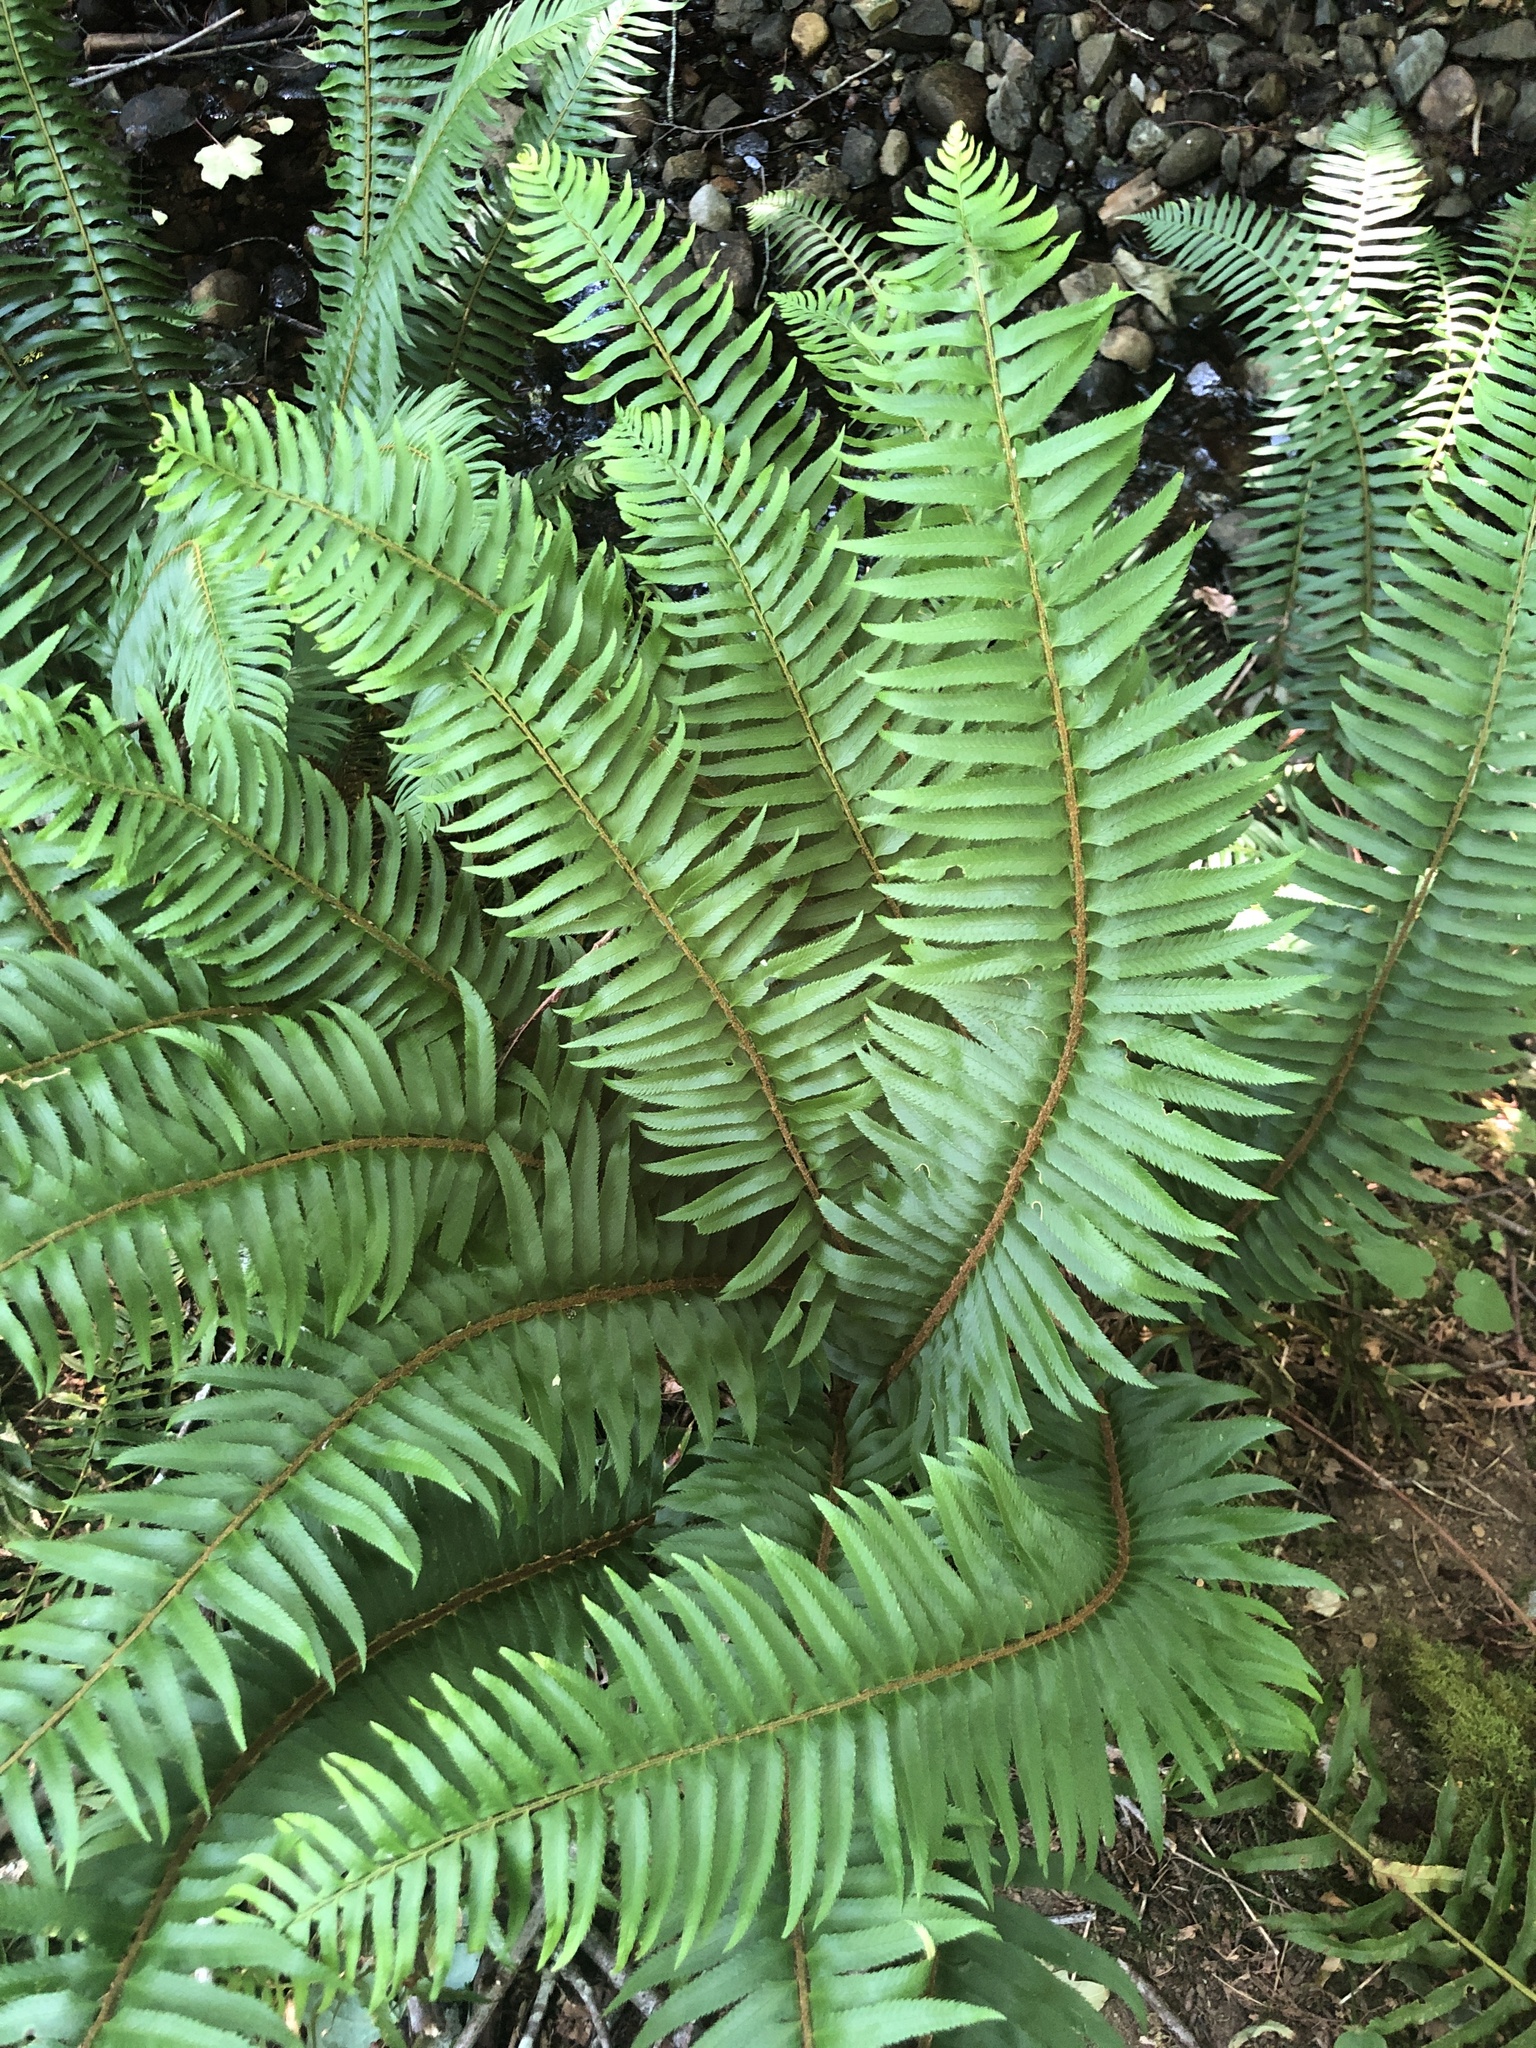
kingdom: Plantae
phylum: Tracheophyta
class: Polypodiopsida
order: Polypodiales
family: Dryopteridaceae
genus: Polystichum
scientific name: Polystichum munitum
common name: Western sword-fern
